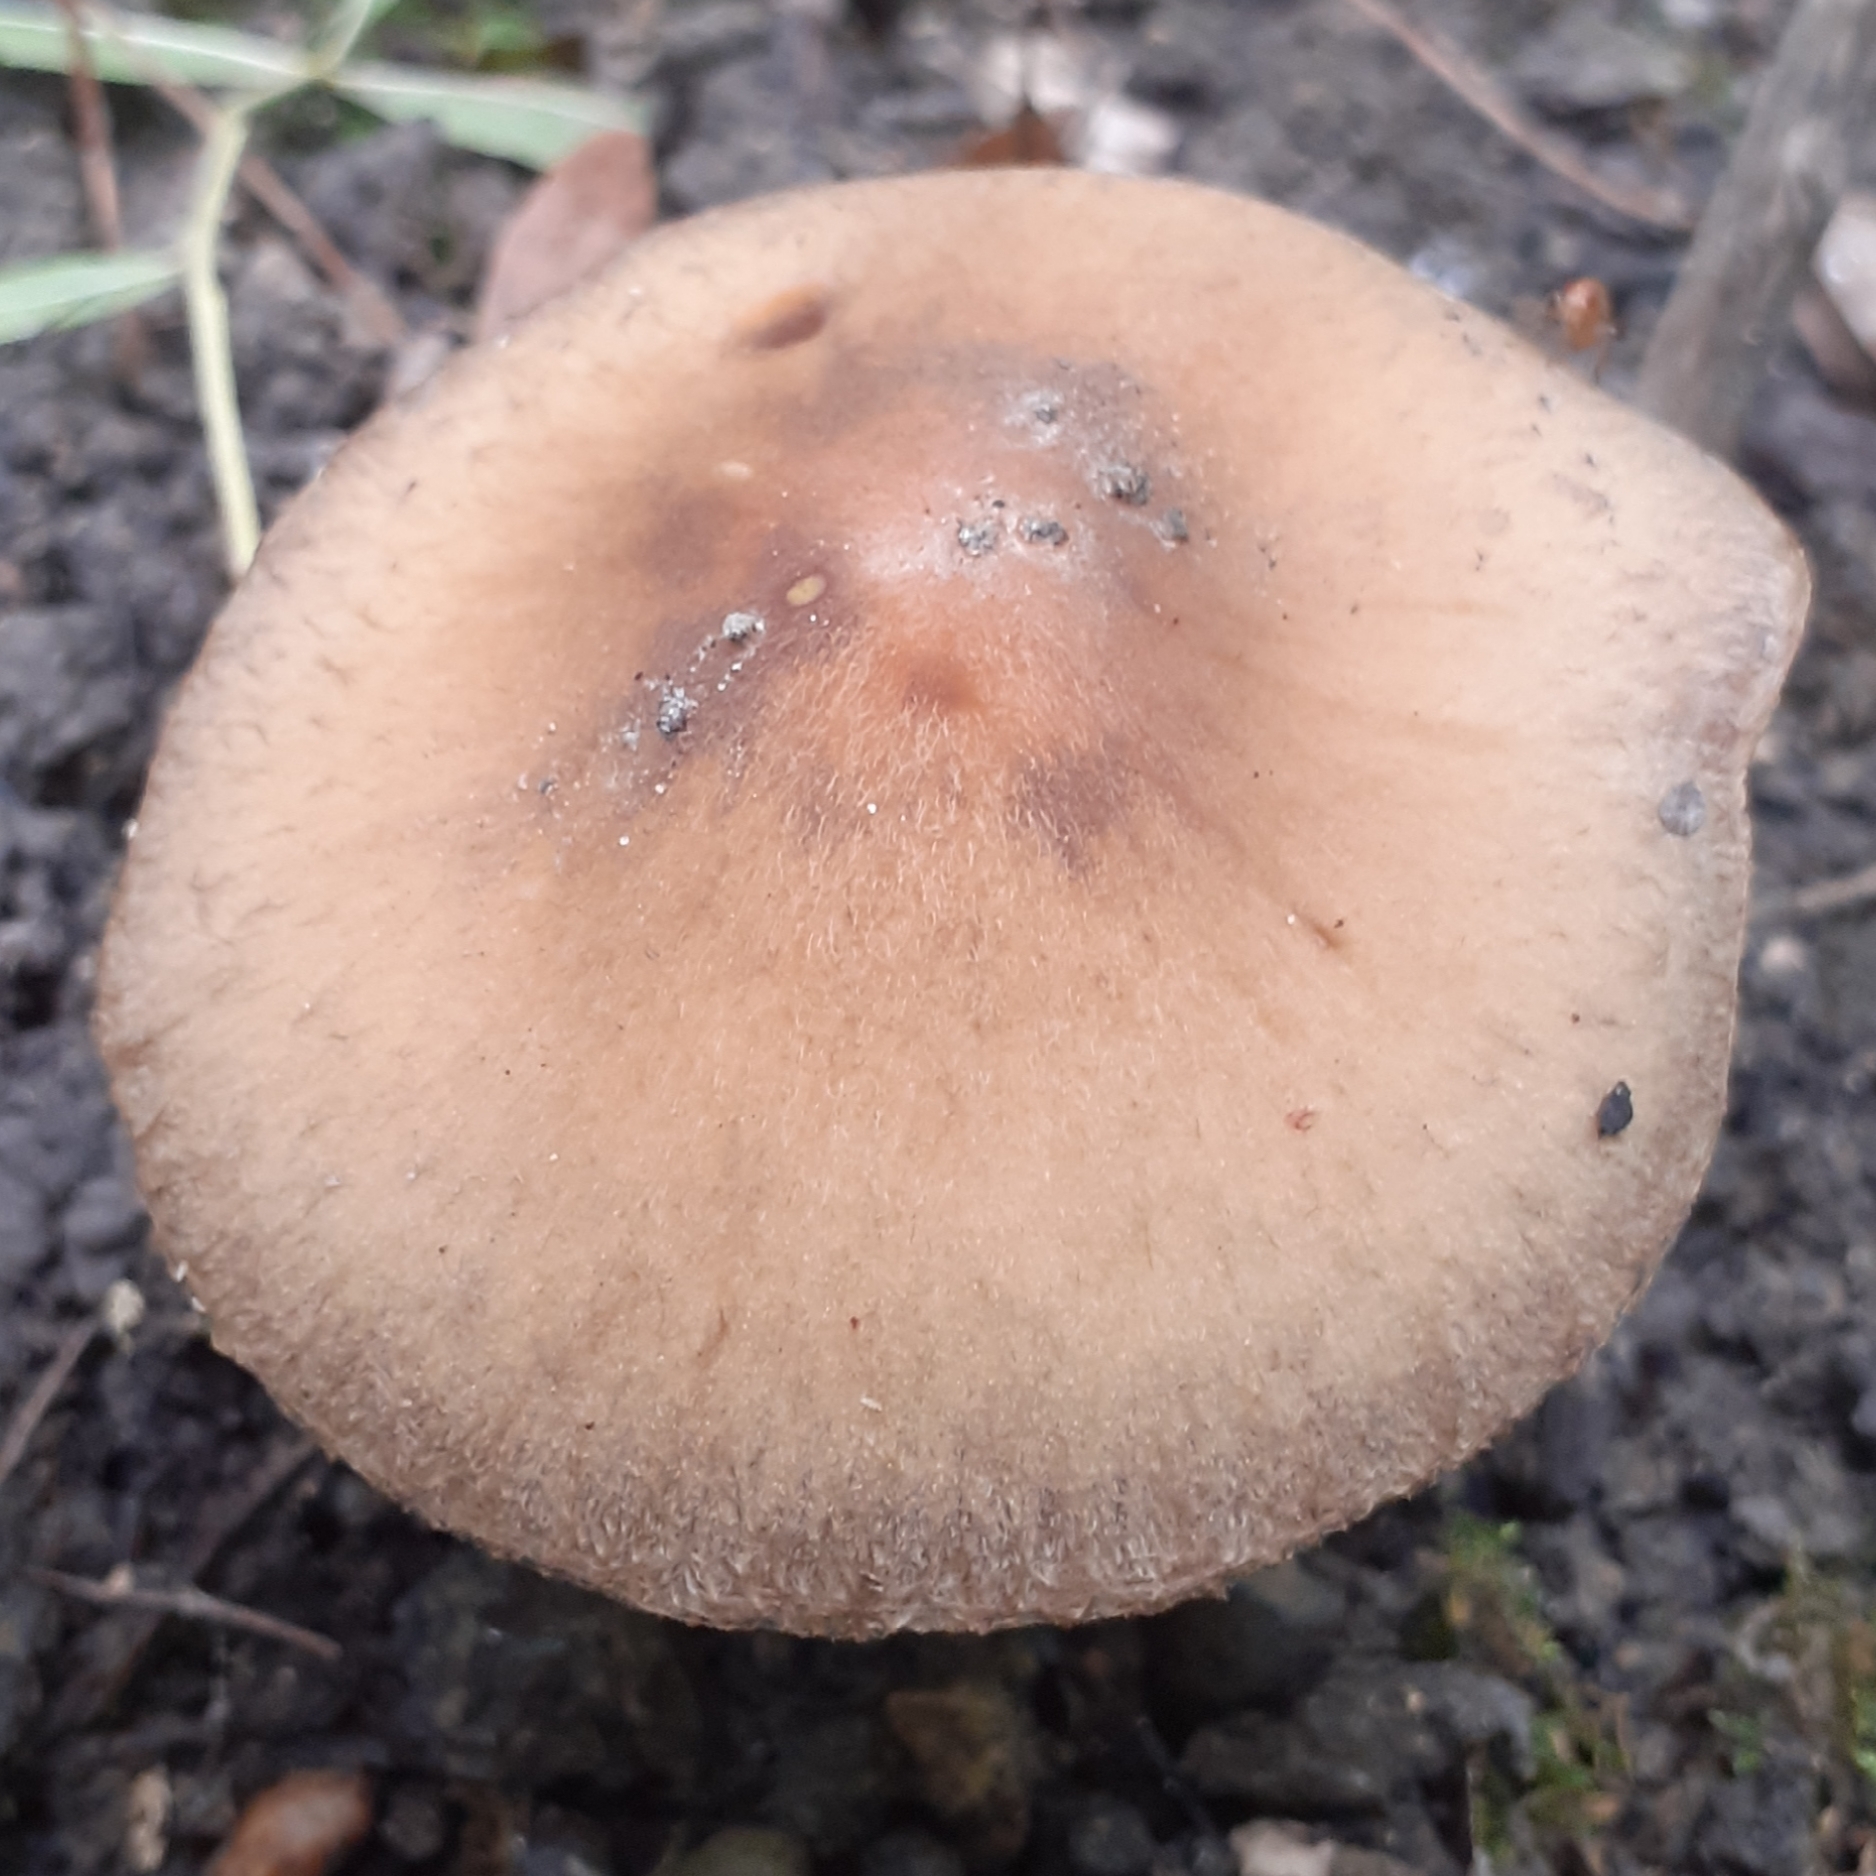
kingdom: Fungi
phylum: Basidiomycota
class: Agaricomycetes
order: Agaricales
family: Psathyrellaceae
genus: Lacrymaria
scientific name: Lacrymaria lacrymabunda
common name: Weeping widow
